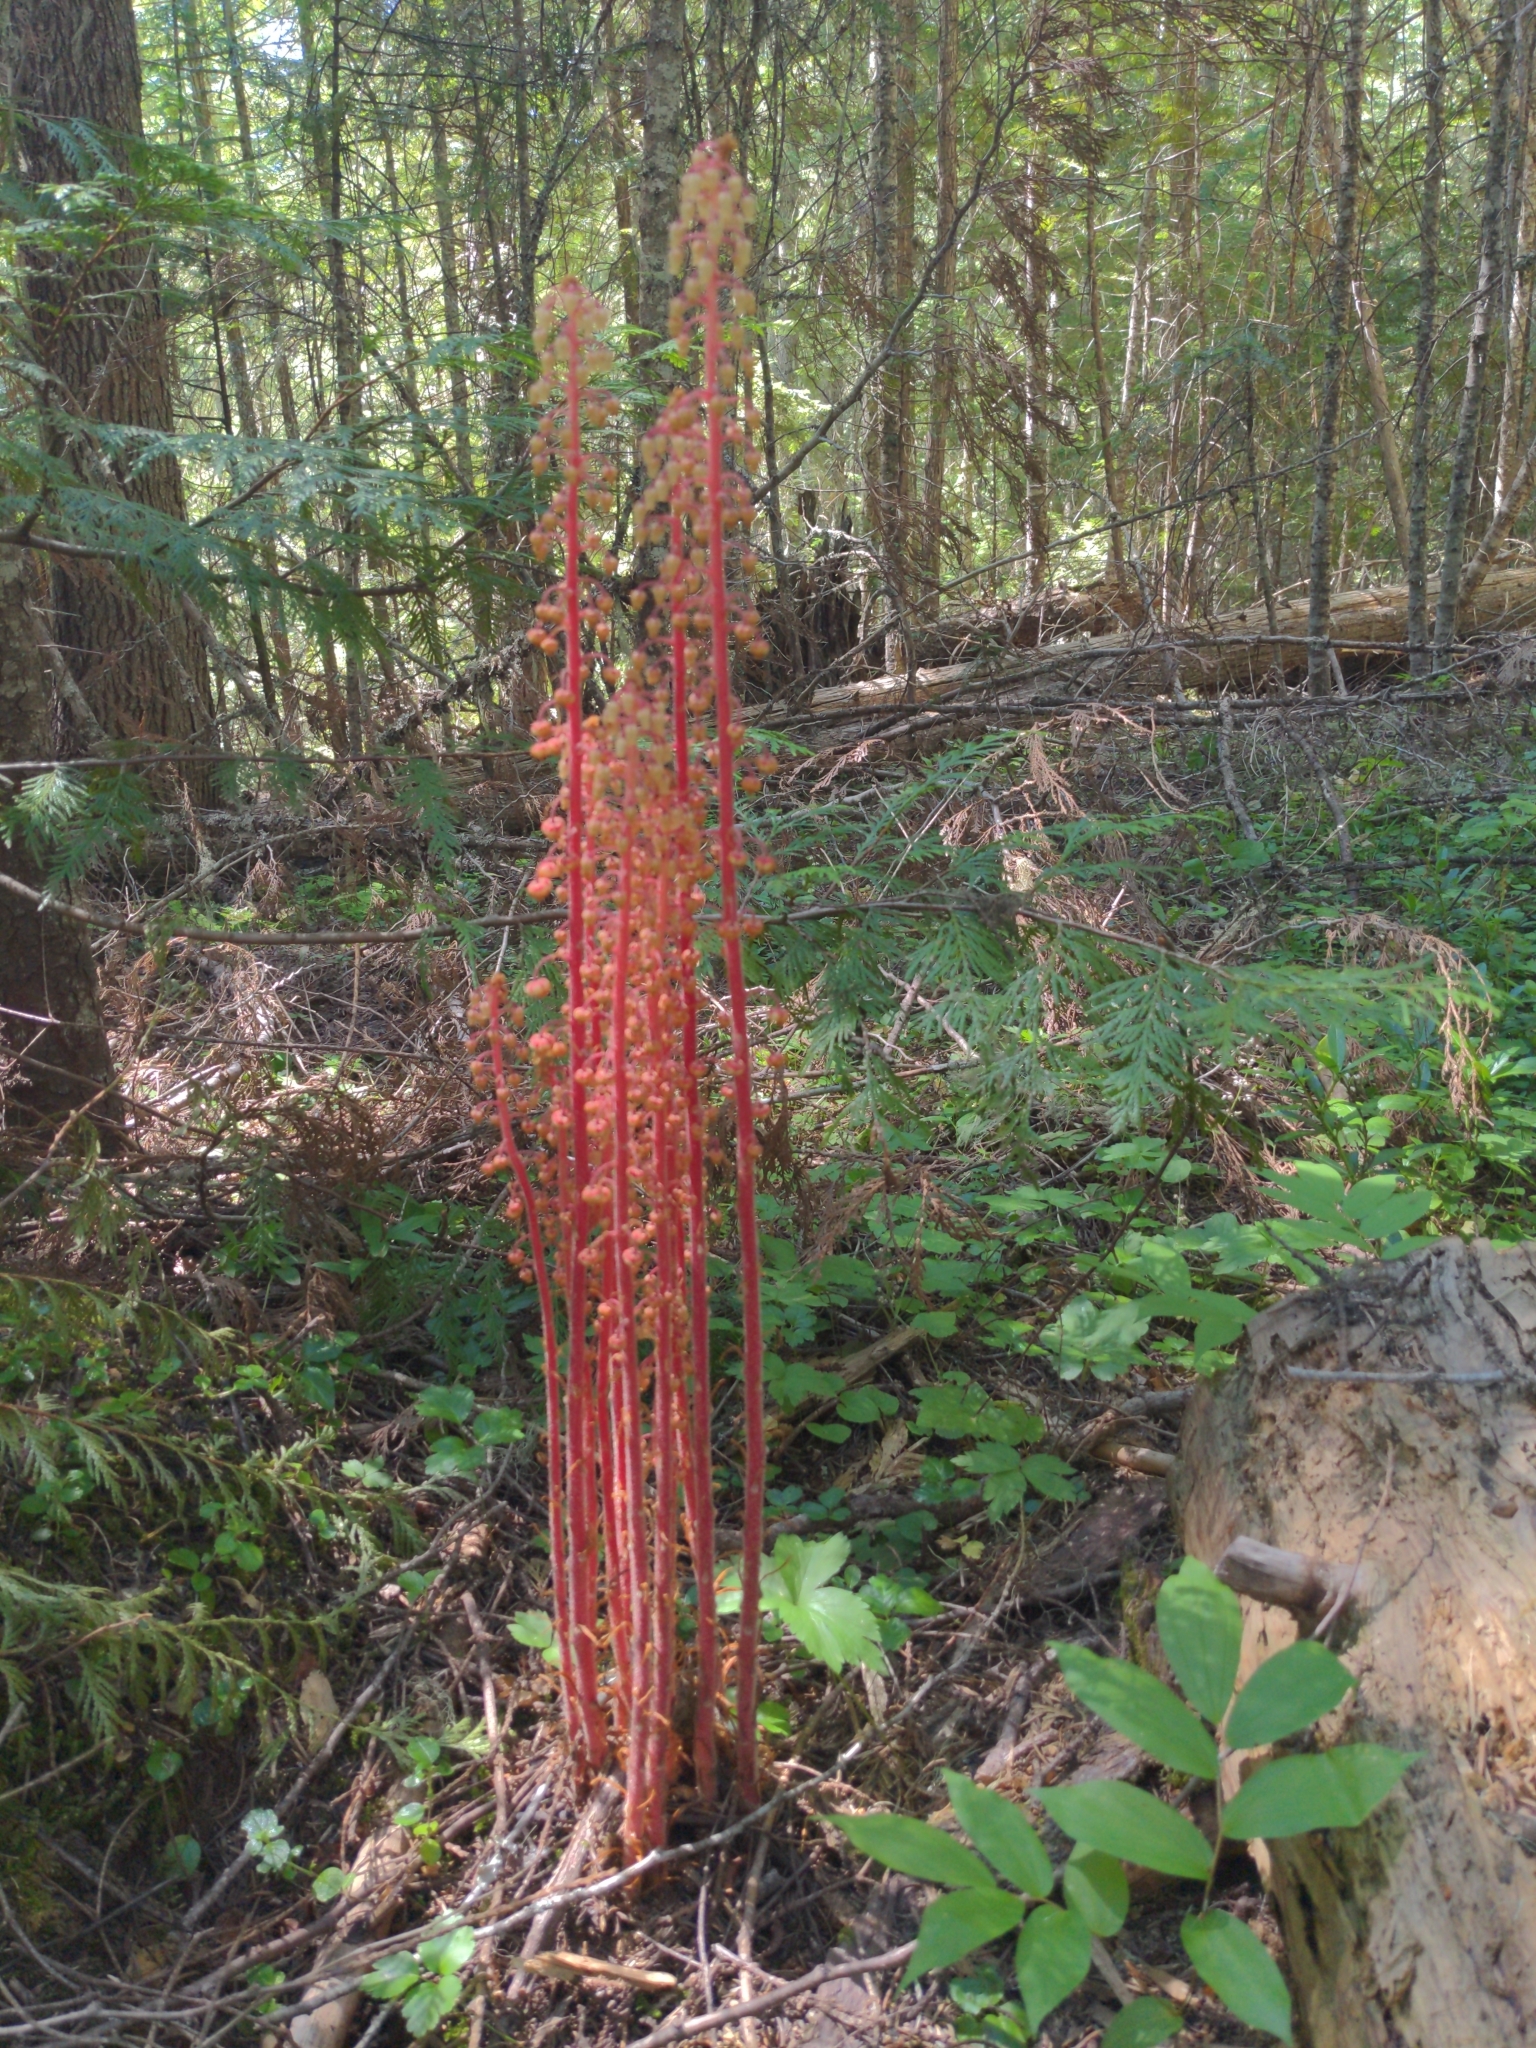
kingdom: Plantae
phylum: Tracheophyta
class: Magnoliopsida
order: Ericales
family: Ericaceae
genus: Pterospora
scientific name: Pterospora andromedea
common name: Giant bird's-nest
